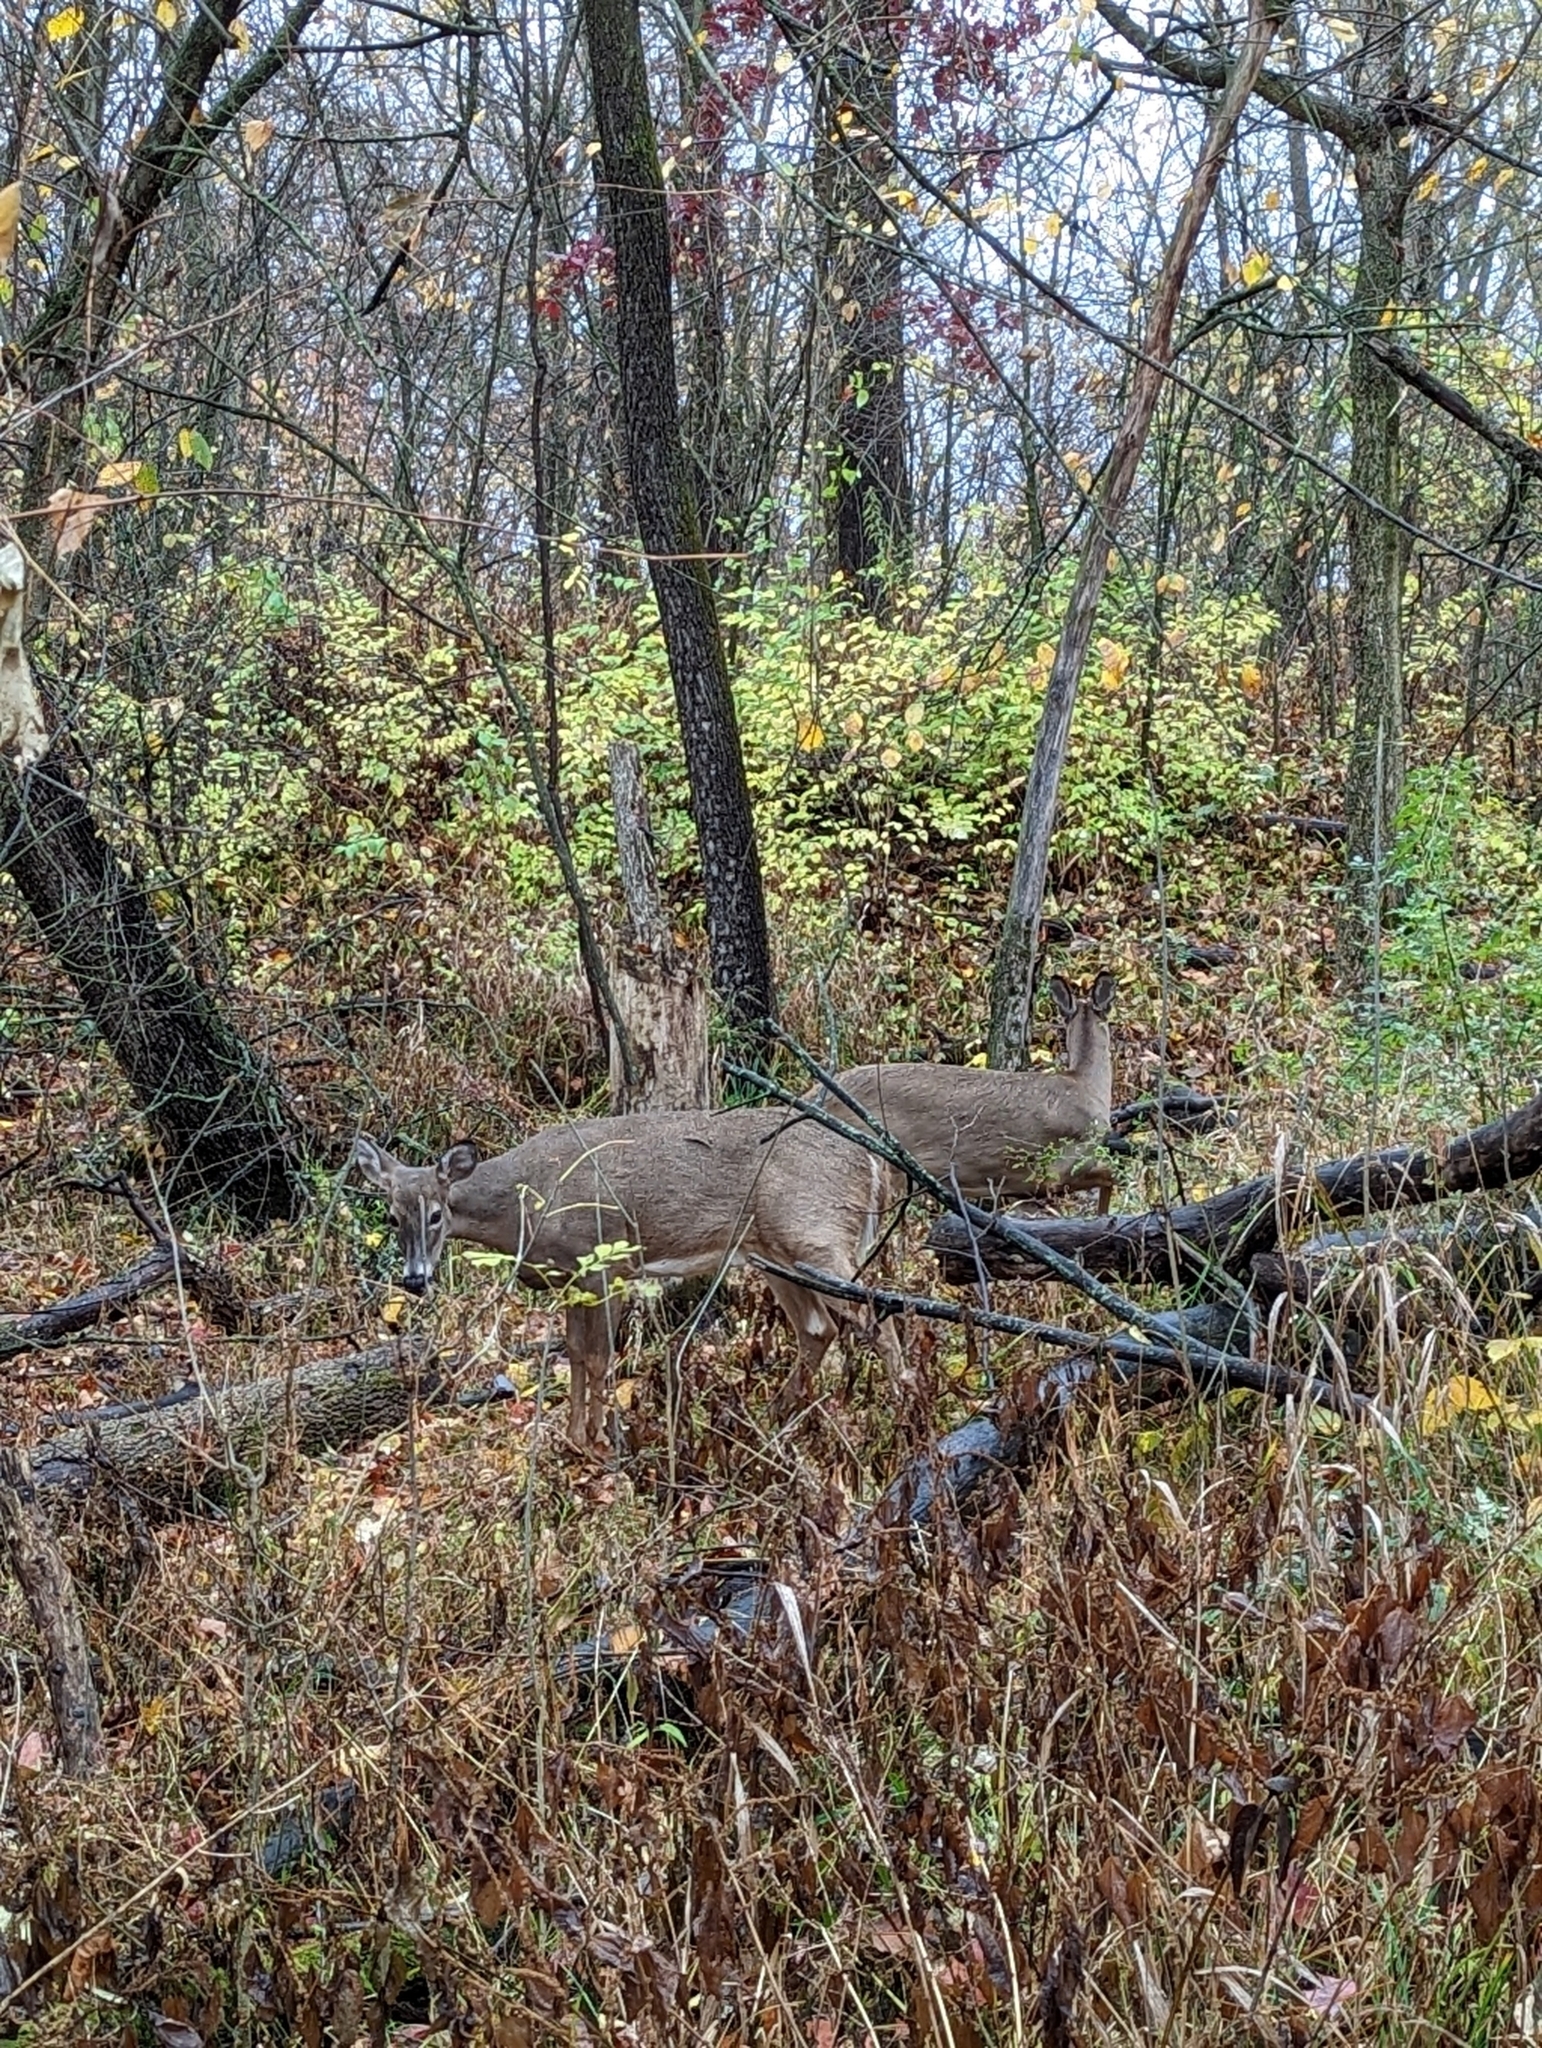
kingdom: Animalia
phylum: Chordata
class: Mammalia
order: Artiodactyla
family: Cervidae
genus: Odocoileus
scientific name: Odocoileus virginianus
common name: White-tailed deer
